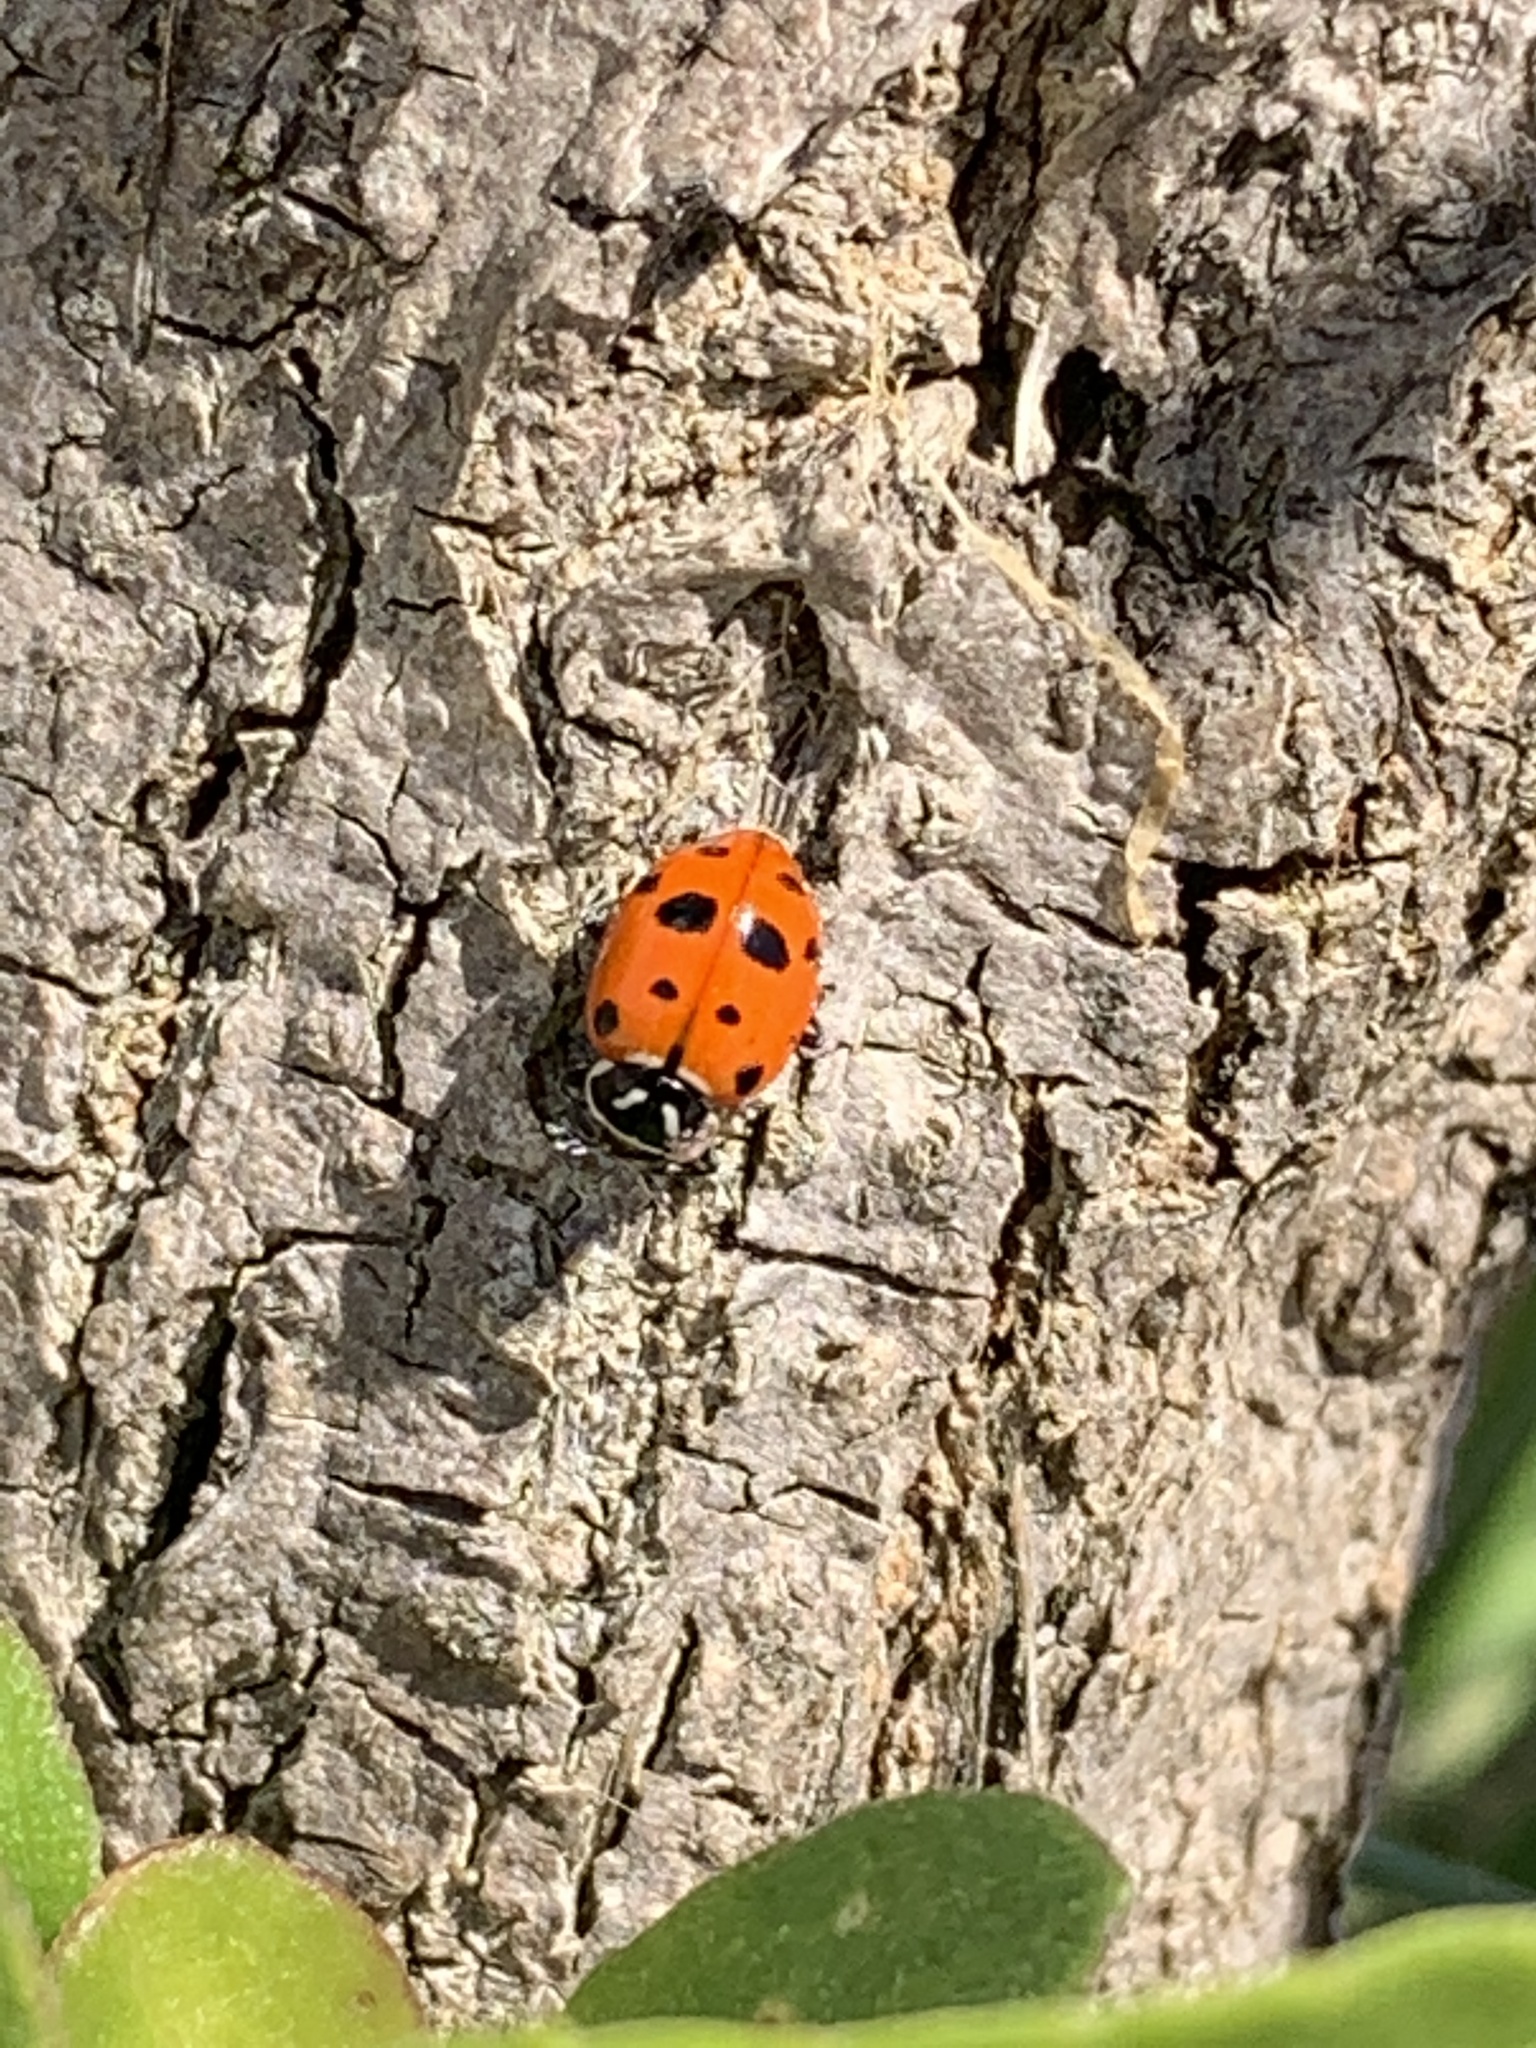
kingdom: Animalia
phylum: Arthropoda
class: Insecta
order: Coleoptera
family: Coccinellidae
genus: Hippodamia
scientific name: Hippodamia convergens
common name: Convergent lady beetle
